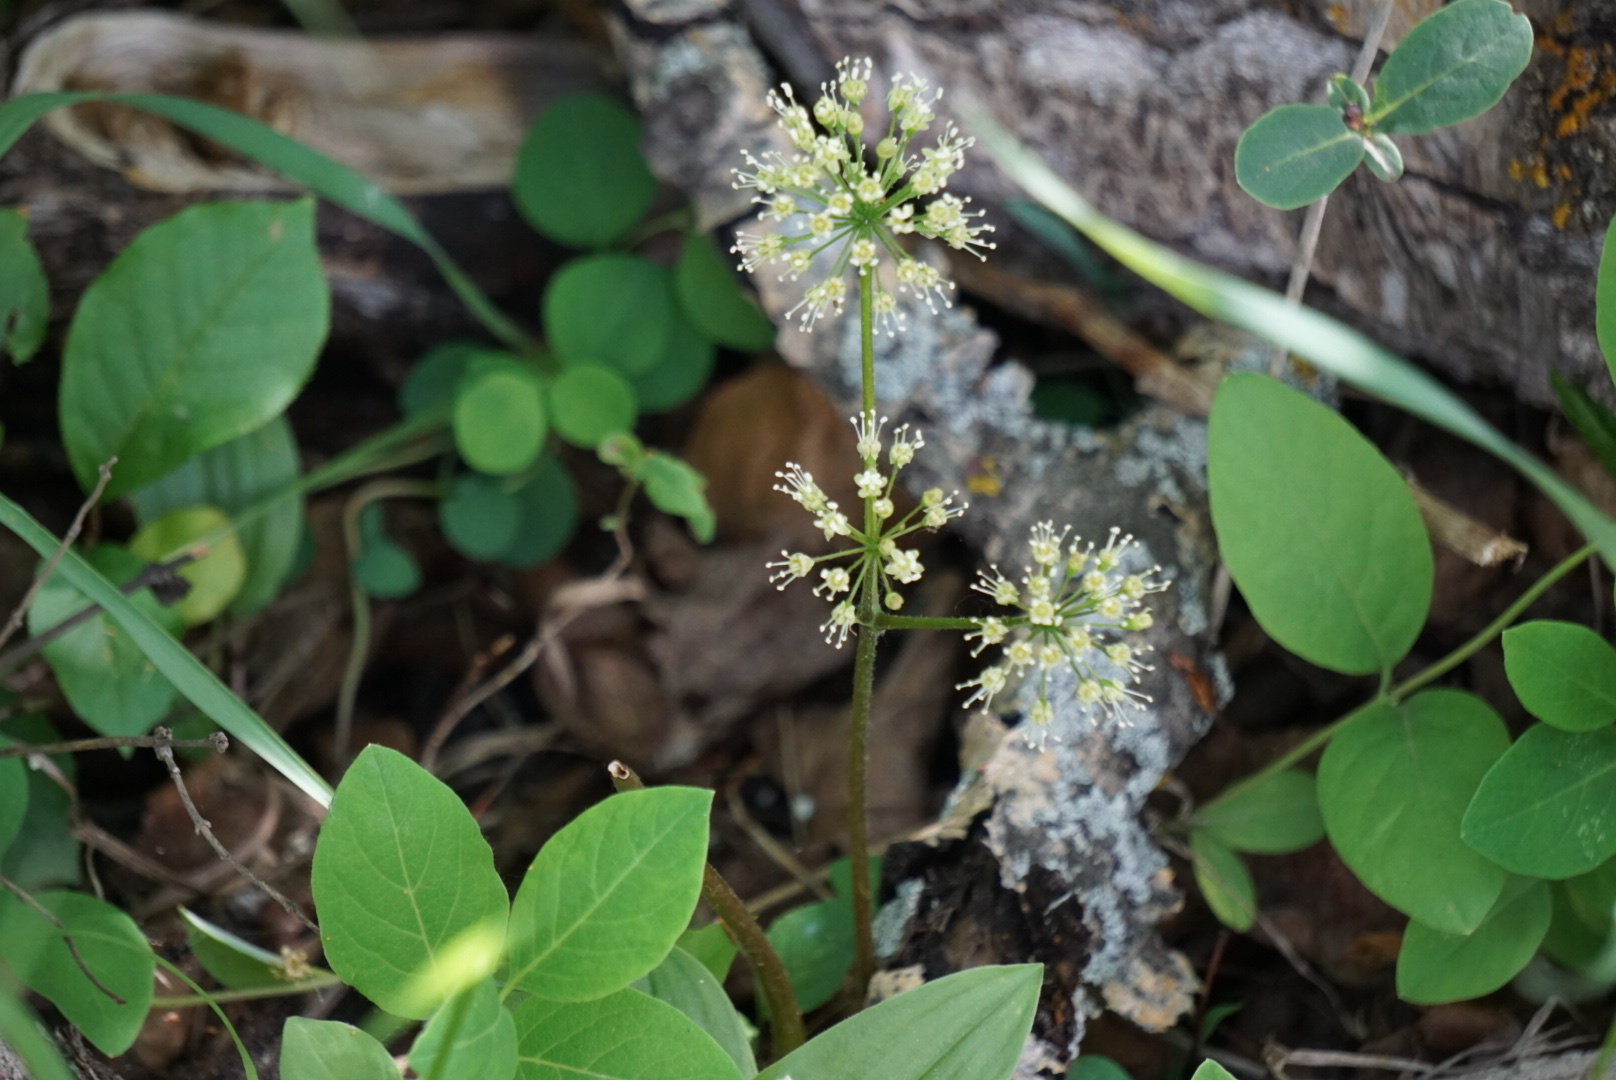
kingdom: Plantae
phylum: Tracheophyta
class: Magnoliopsida
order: Apiales
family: Araliaceae
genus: Aralia
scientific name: Aralia nudicaulis
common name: Wild sarsaparilla
